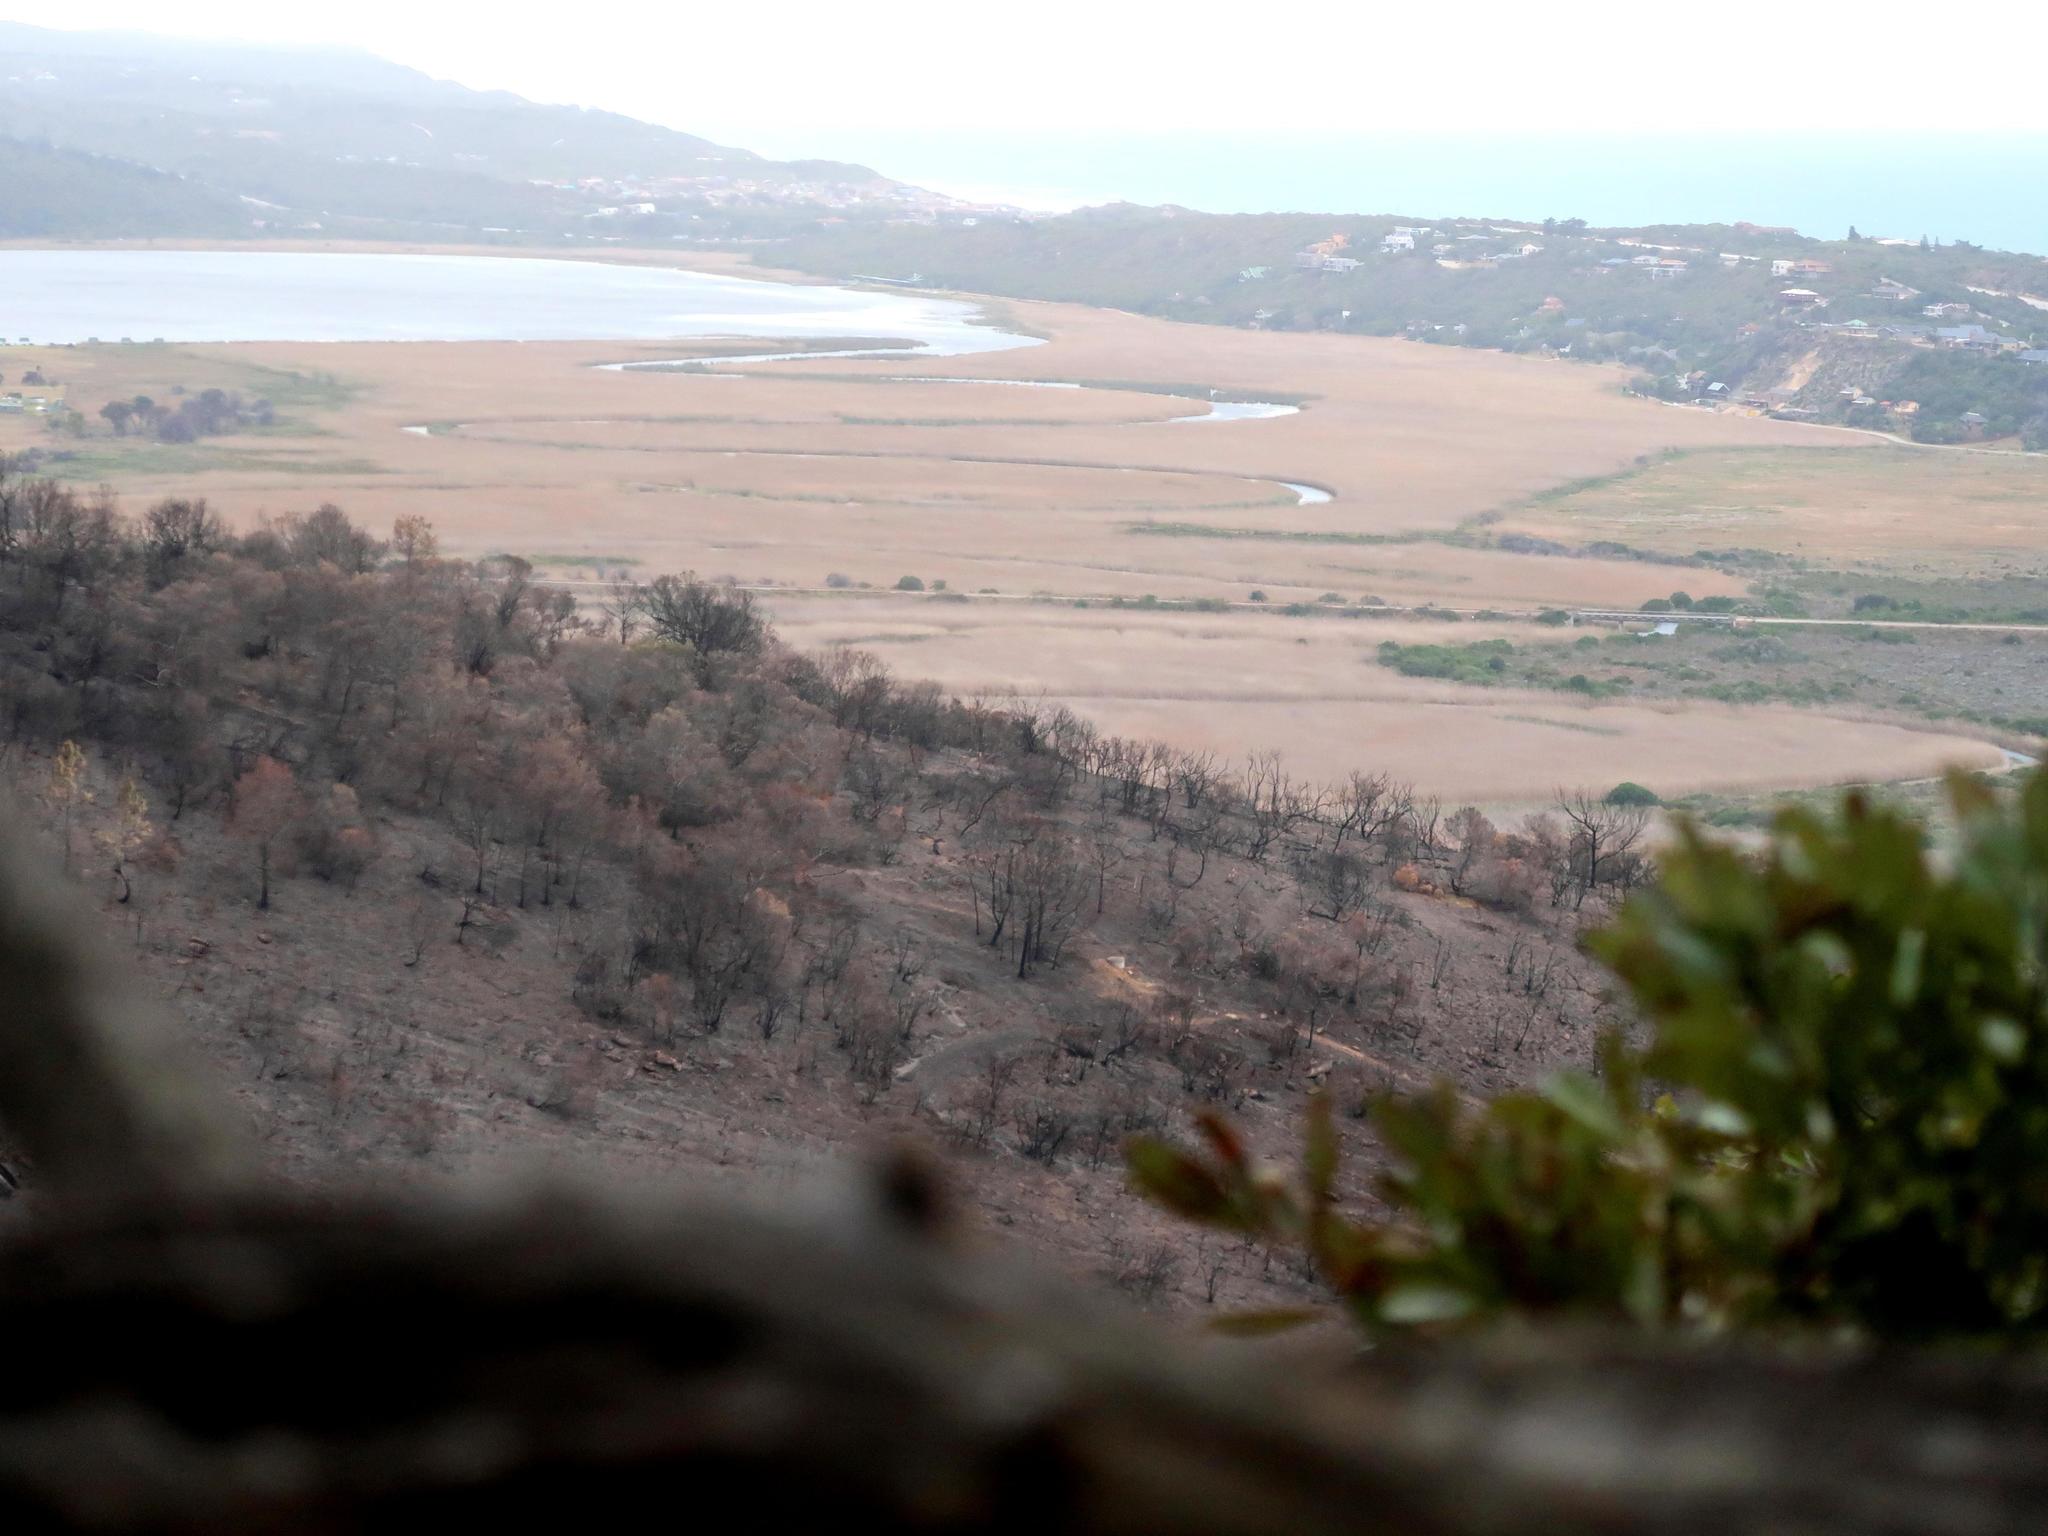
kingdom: Plantae
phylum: Tracheophyta
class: Liliopsida
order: Poales
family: Poaceae
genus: Phragmites
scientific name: Phragmites australis
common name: Common reed
